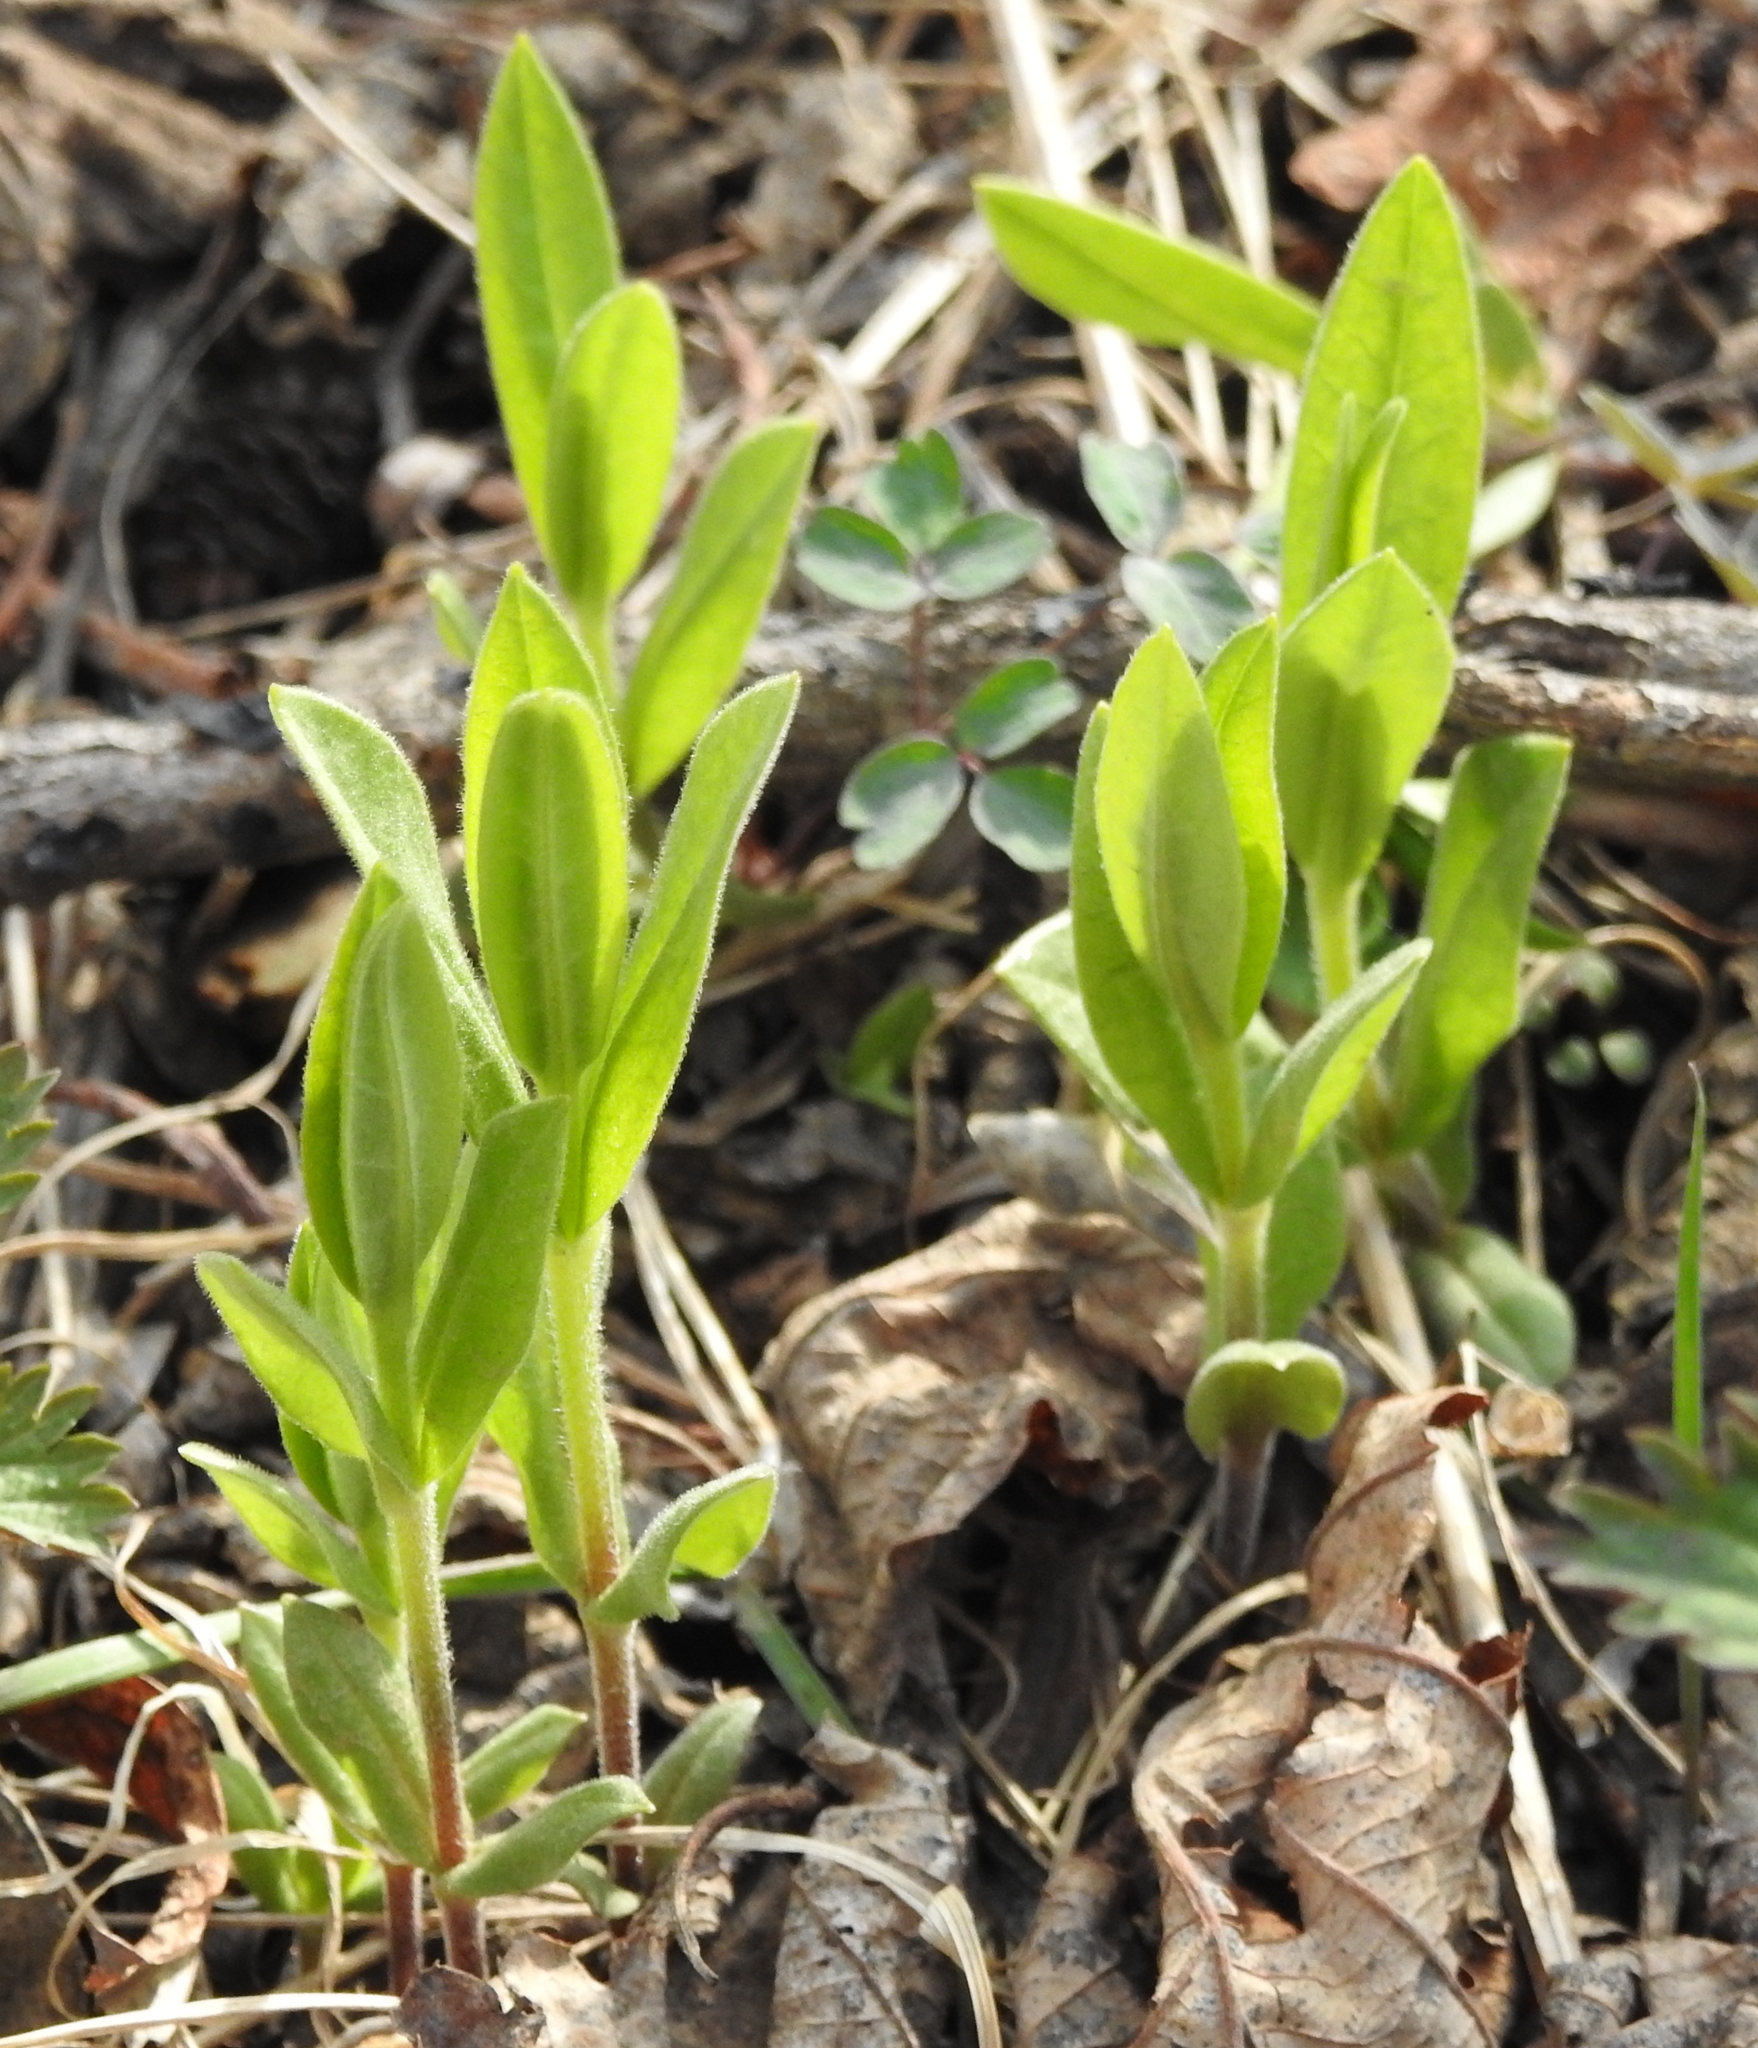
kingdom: Plantae
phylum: Tracheophyta
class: Magnoliopsida
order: Caryophyllales
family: Caryophyllaceae
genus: Moehringia
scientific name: Moehringia lateriflora
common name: Blunt-leaved sandwort
